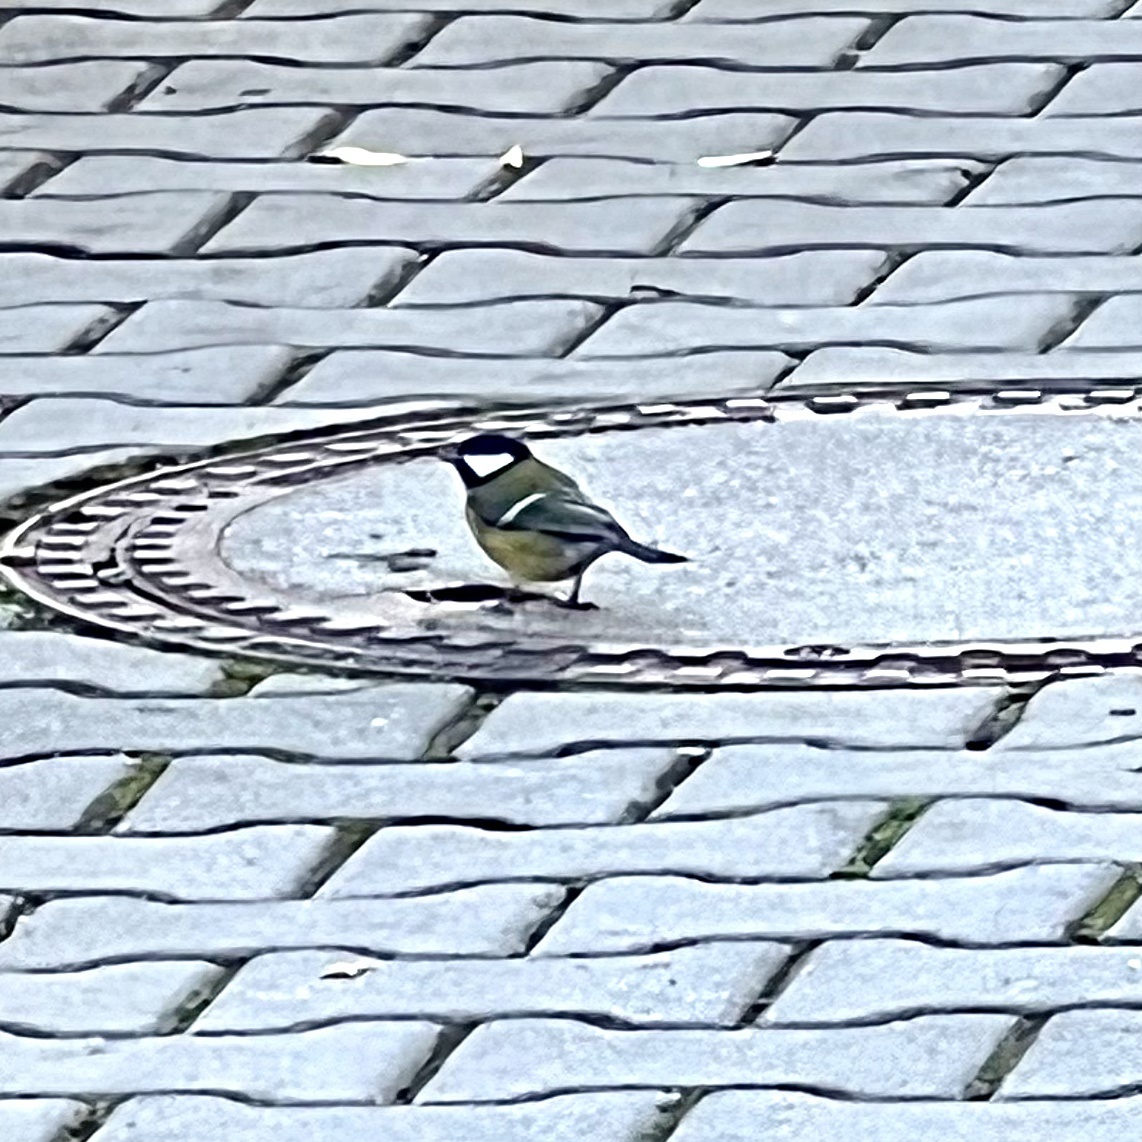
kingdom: Animalia
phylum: Chordata
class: Aves
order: Passeriformes
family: Paridae
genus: Parus
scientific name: Parus major
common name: Great tit
